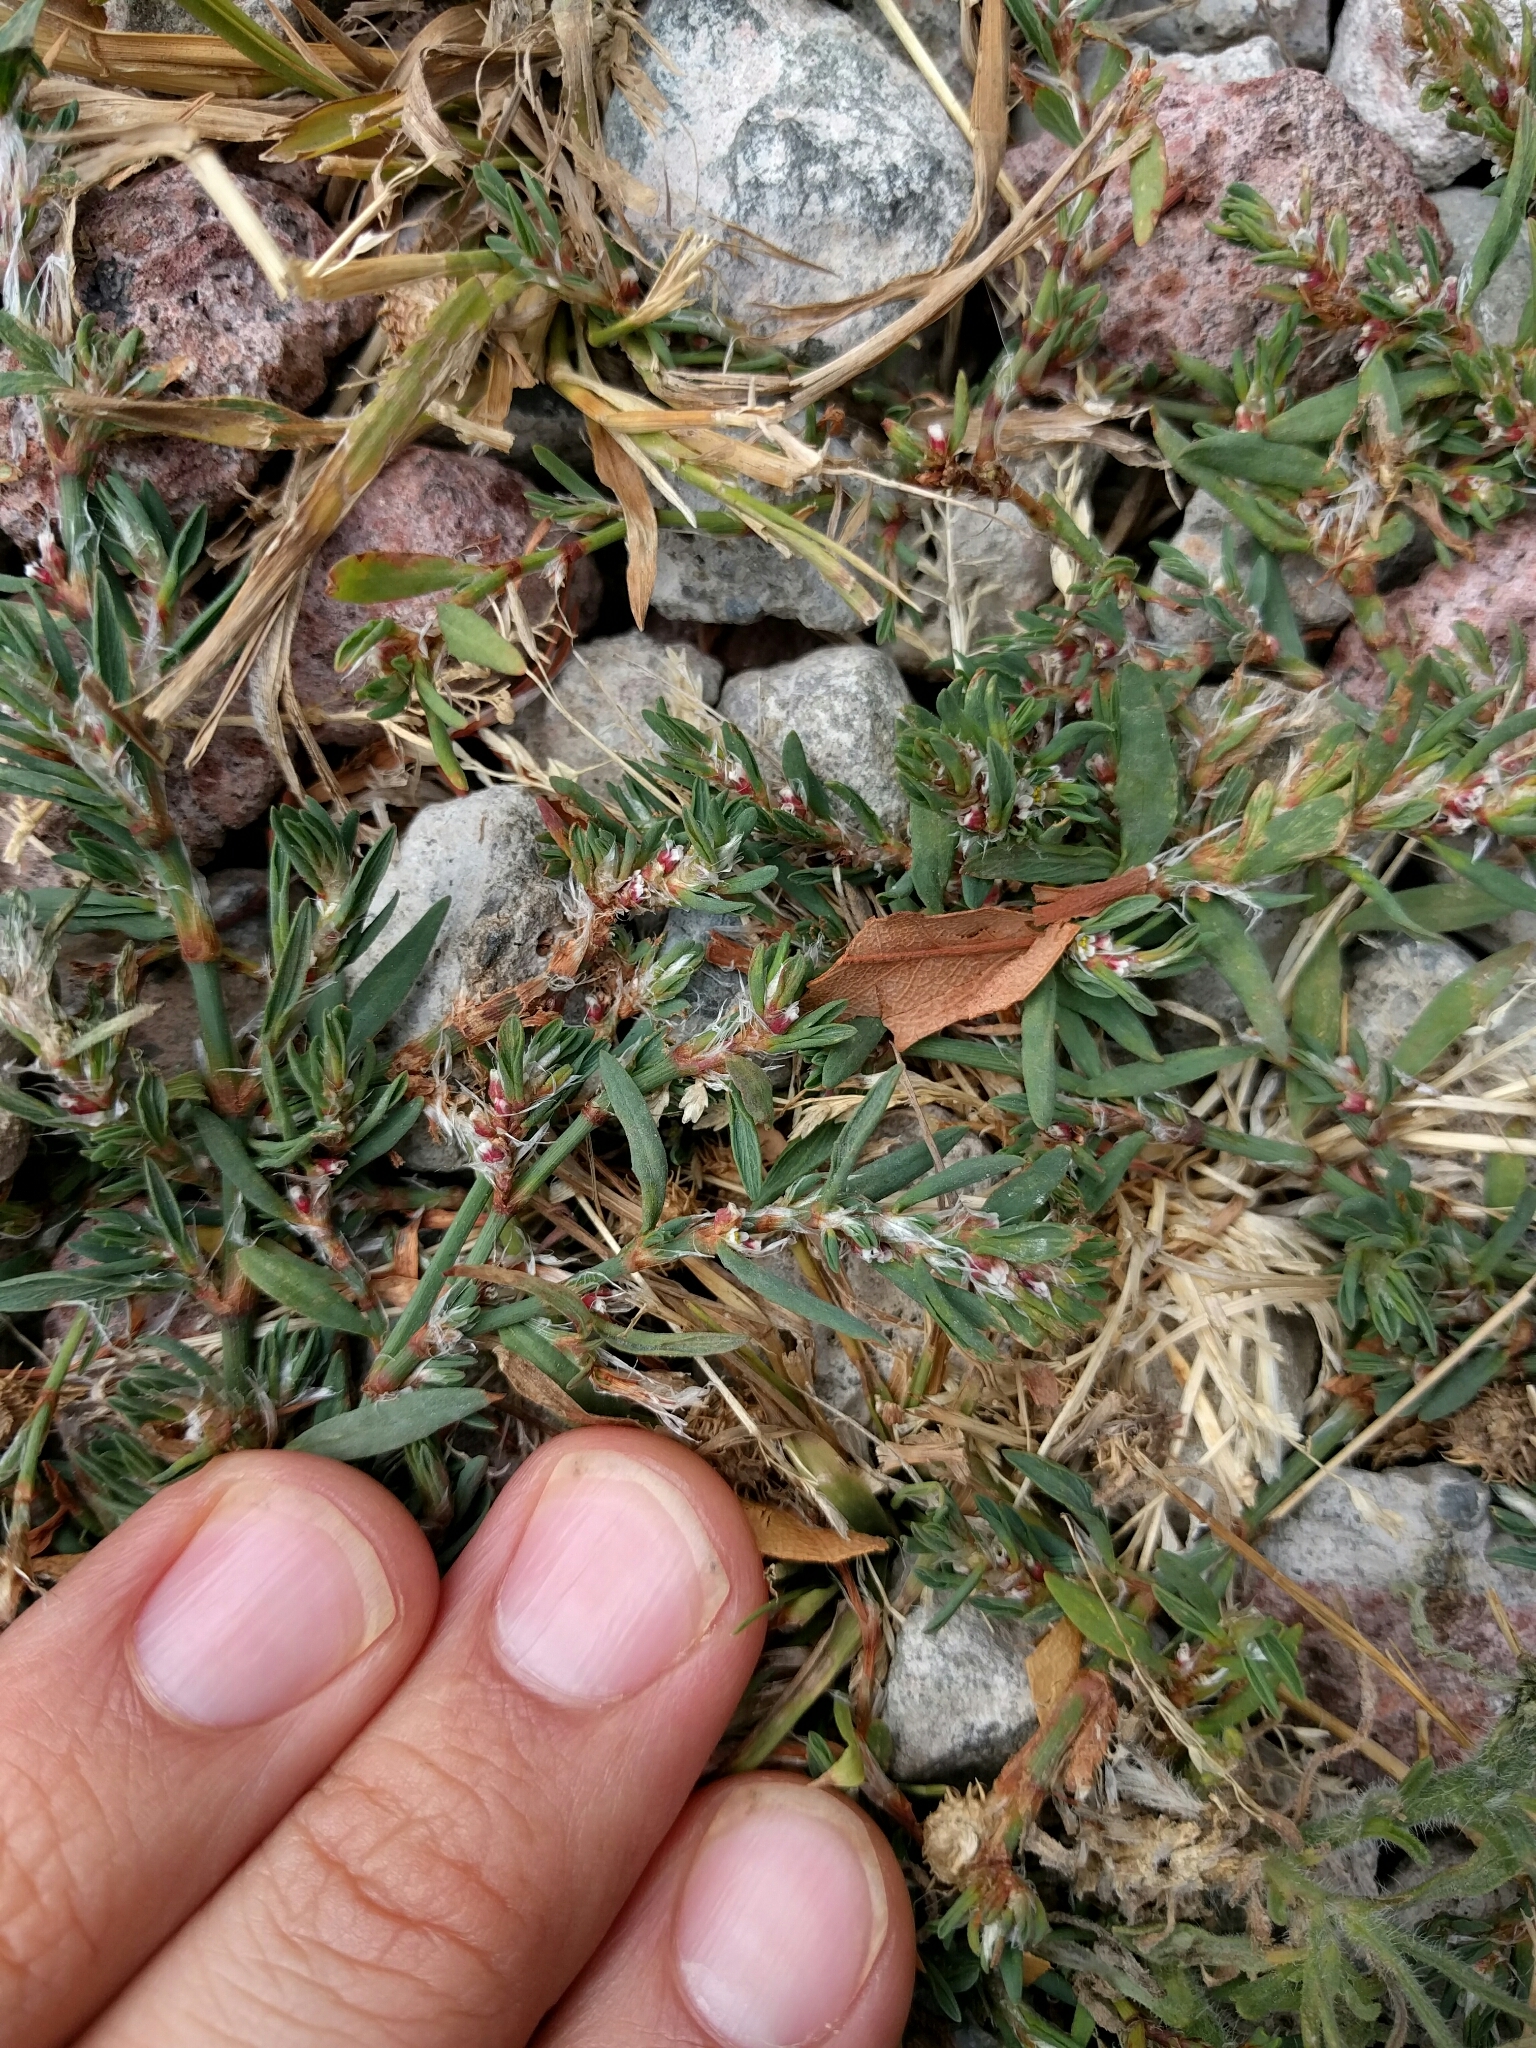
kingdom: Plantae
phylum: Tracheophyta
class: Magnoliopsida
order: Caryophyllales
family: Polygonaceae
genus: Polygonum
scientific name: Polygonum aviculare
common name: Prostrate knotweed
